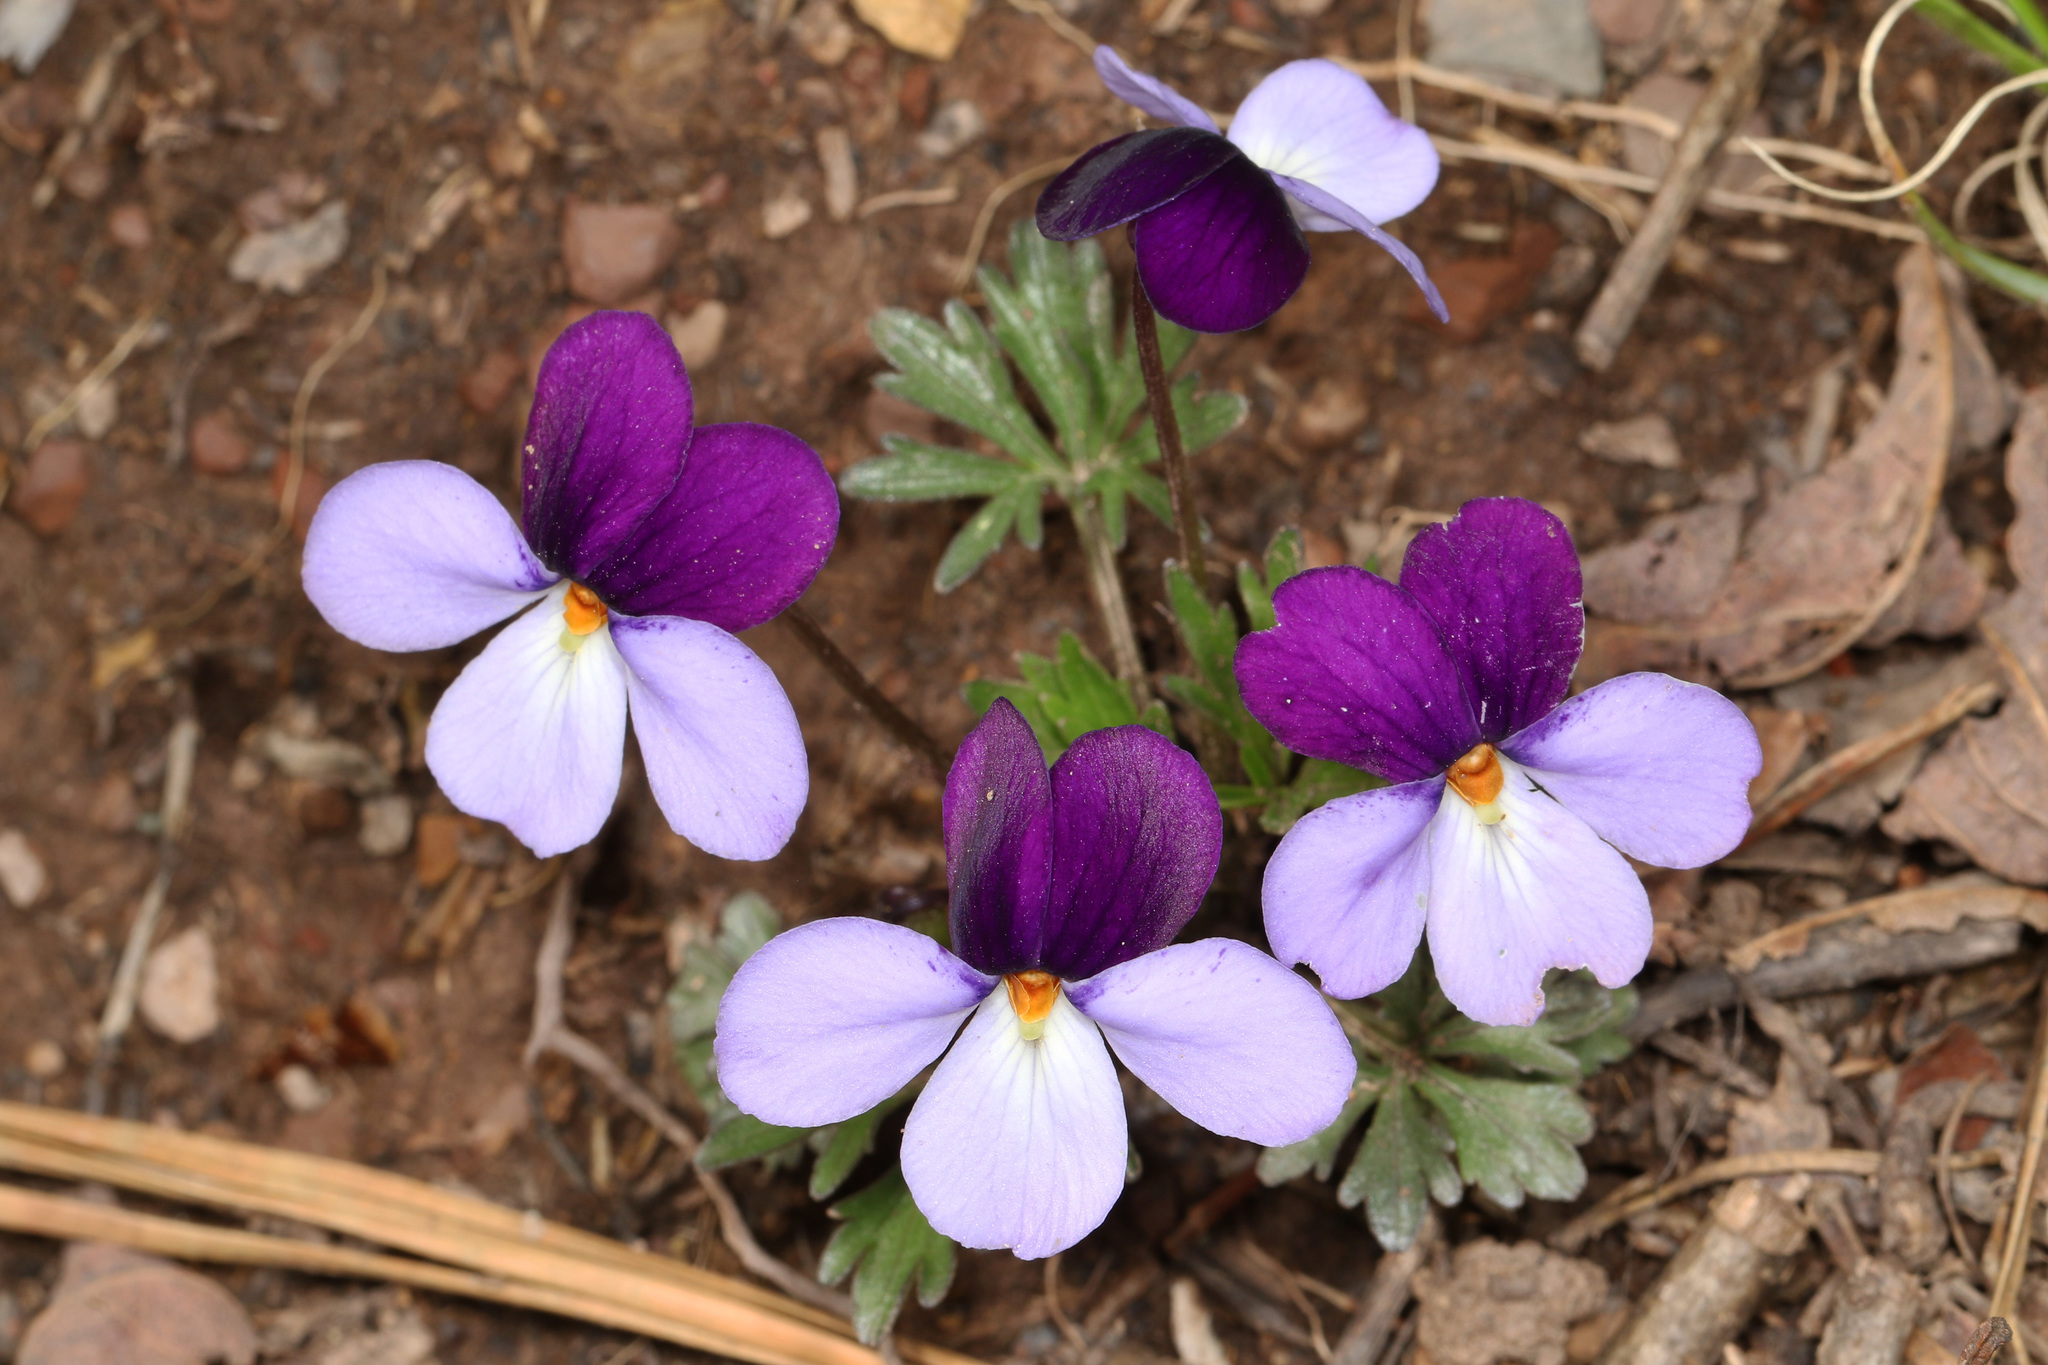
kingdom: Plantae
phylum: Tracheophyta
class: Magnoliopsida
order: Malpighiales
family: Violaceae
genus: Viola
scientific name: Viola pedata
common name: Pansy violet
